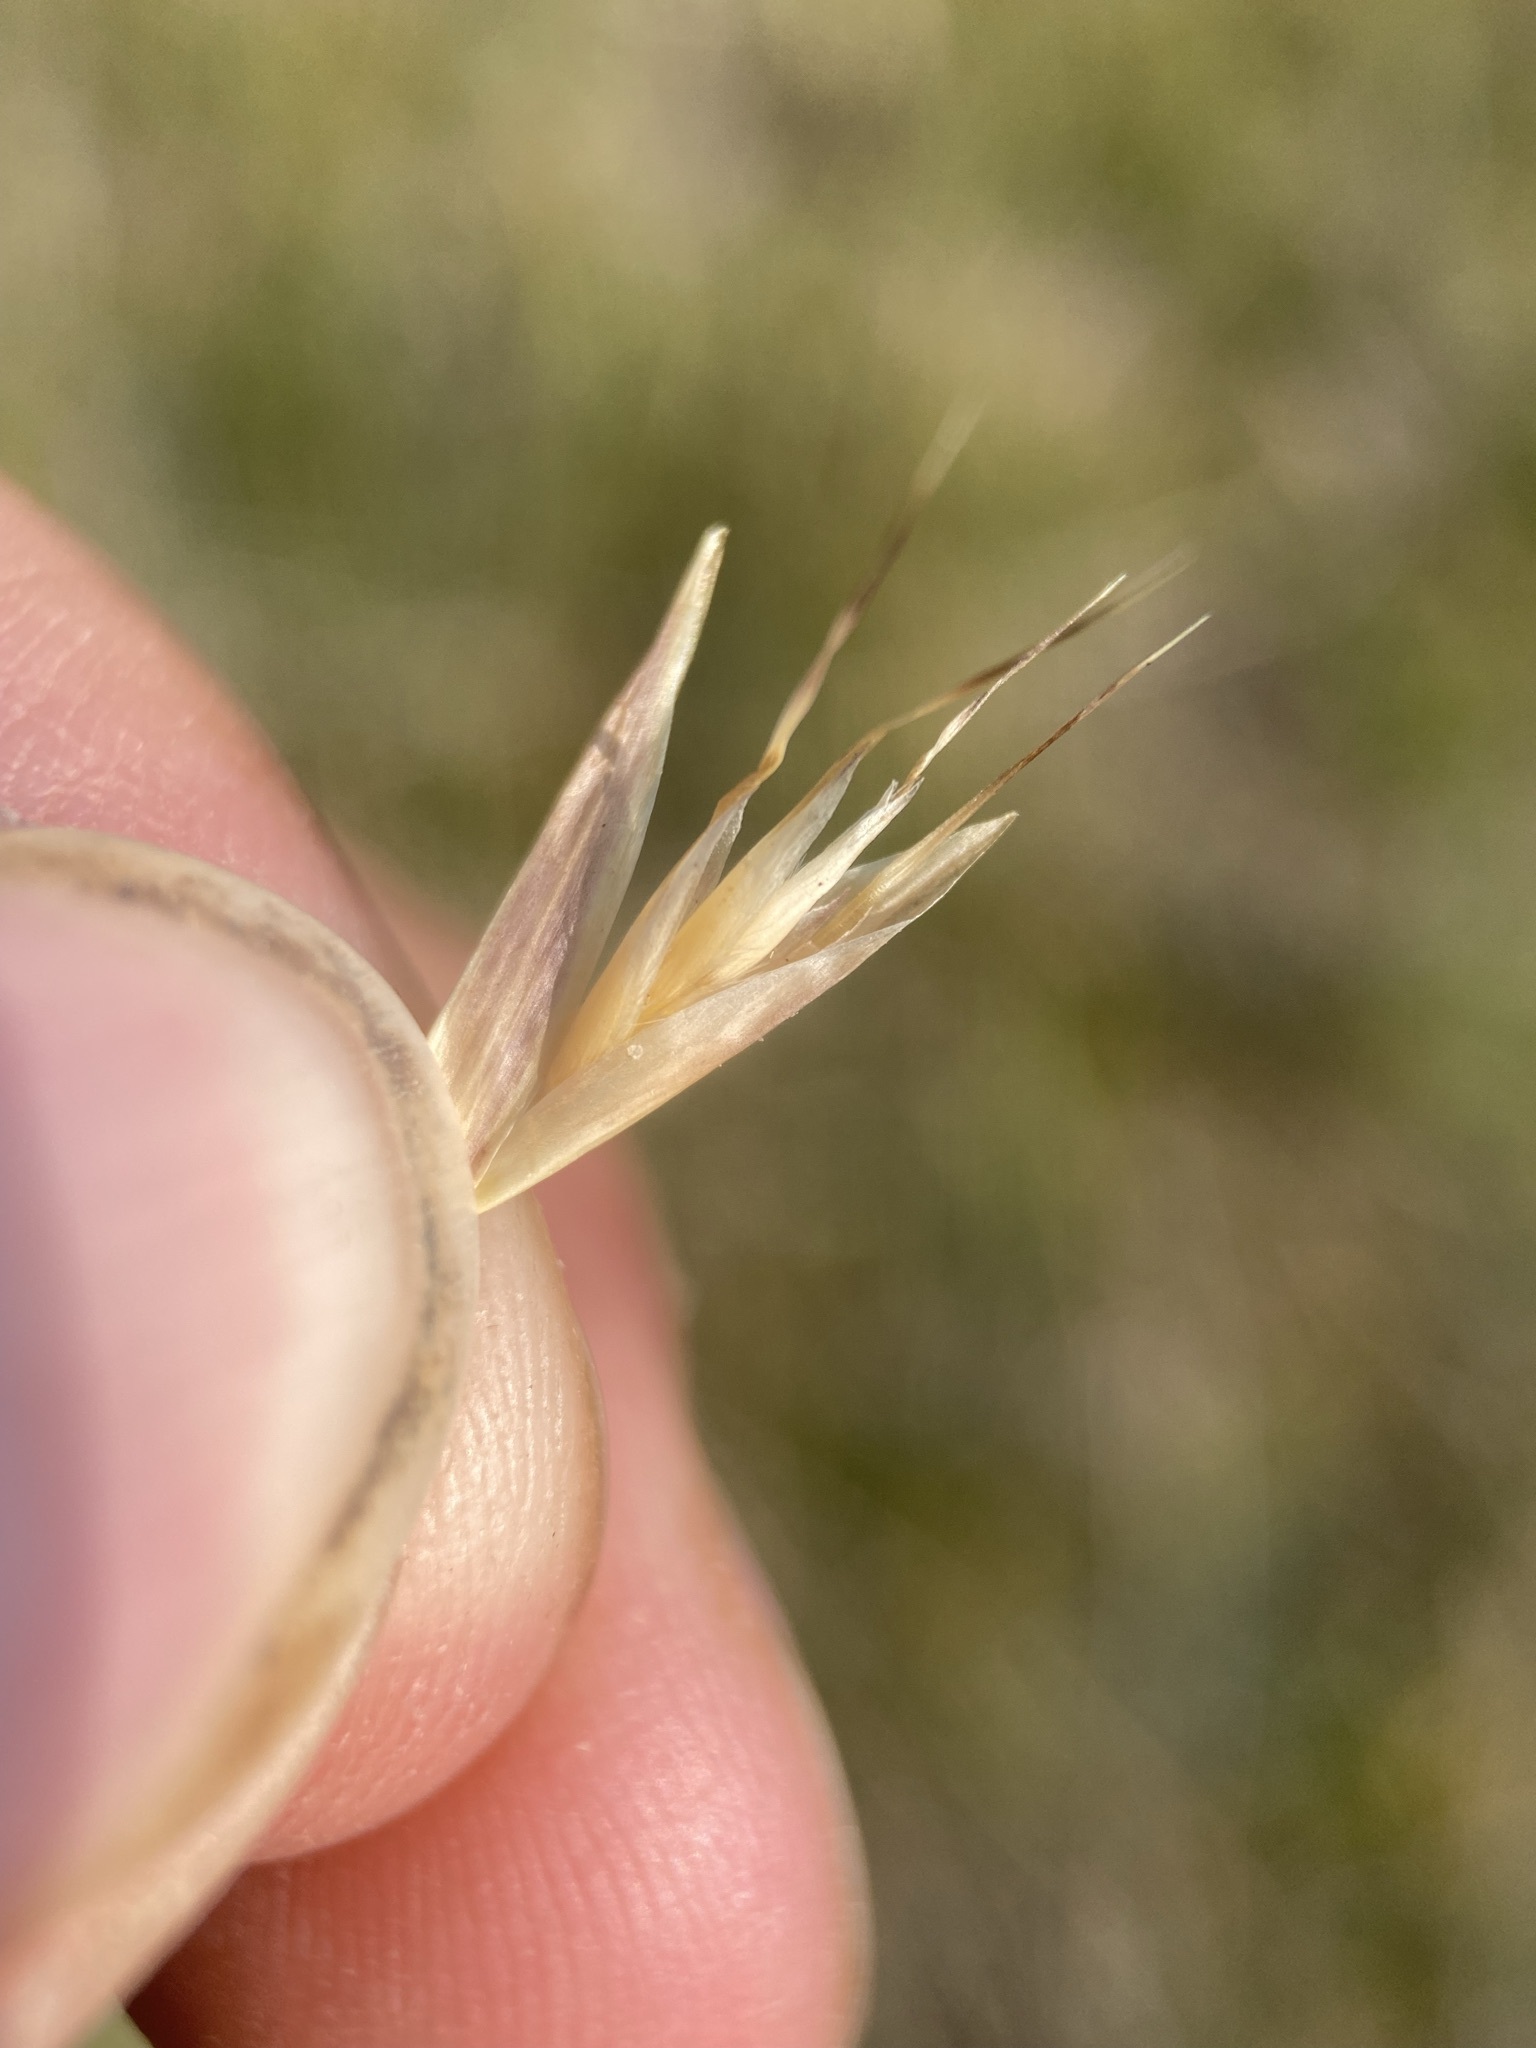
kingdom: Plantae
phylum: Tracheophyta
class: Liliopsida
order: Poales
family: Poaceae
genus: Danthonia
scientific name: Danthonia intermedia
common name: Intermediate oat grass
